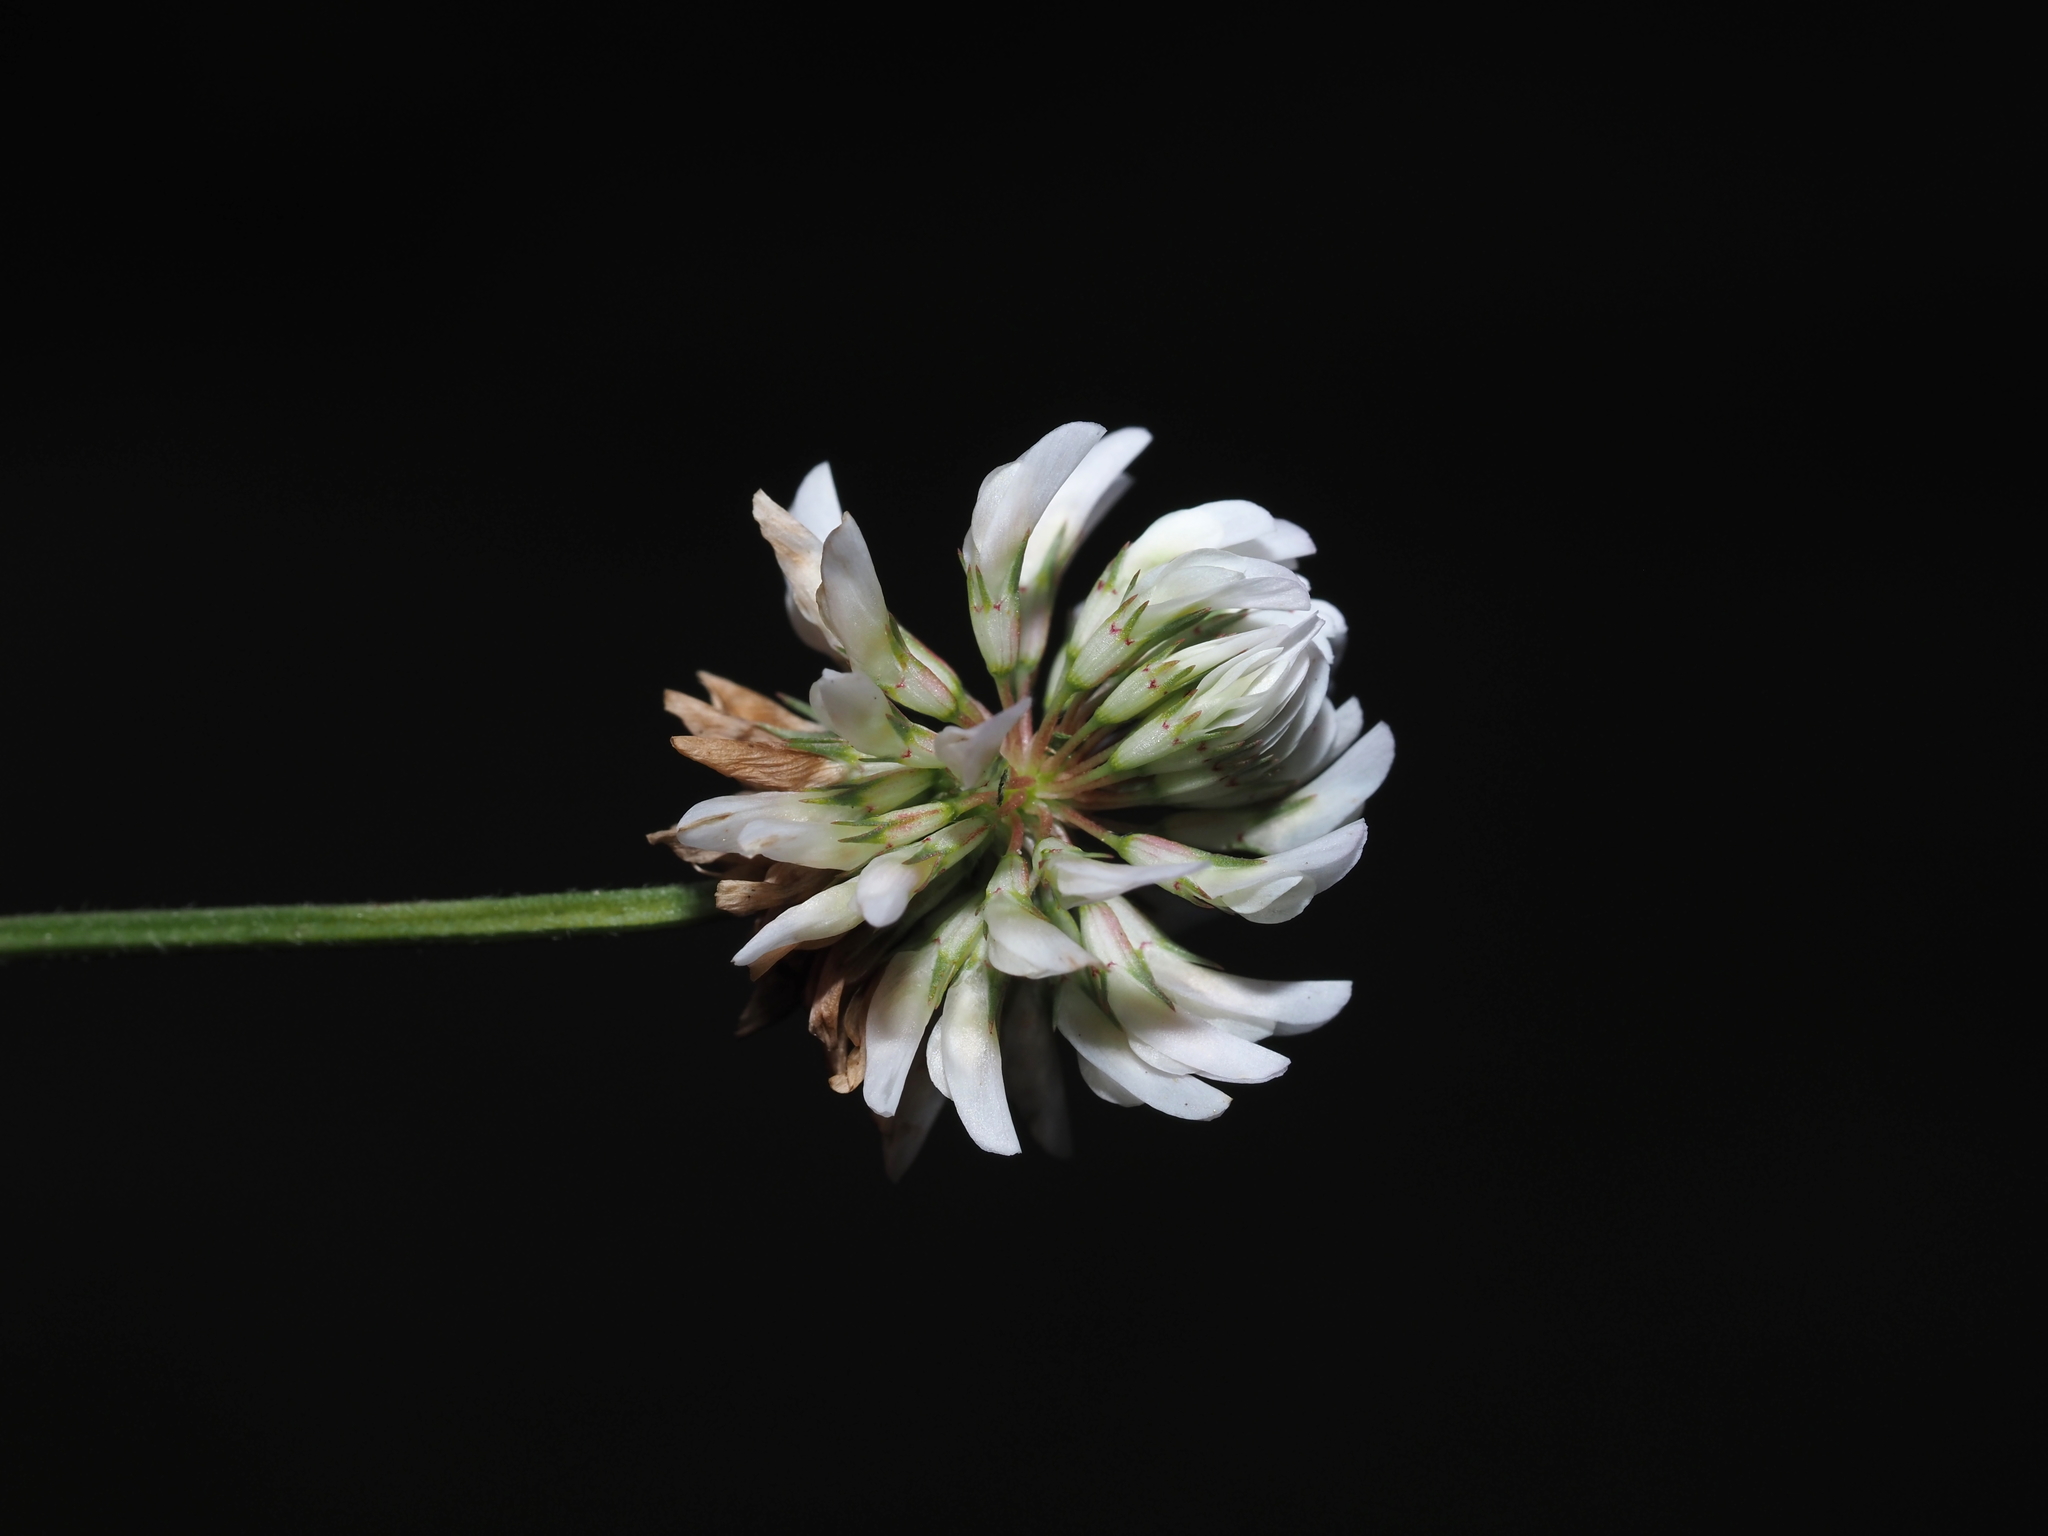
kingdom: Plantae
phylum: Tracheophyta
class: Magnoliopsida
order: Fabales
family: Fabaceae
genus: Trifolium
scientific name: Trifolium repens
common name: White clover
